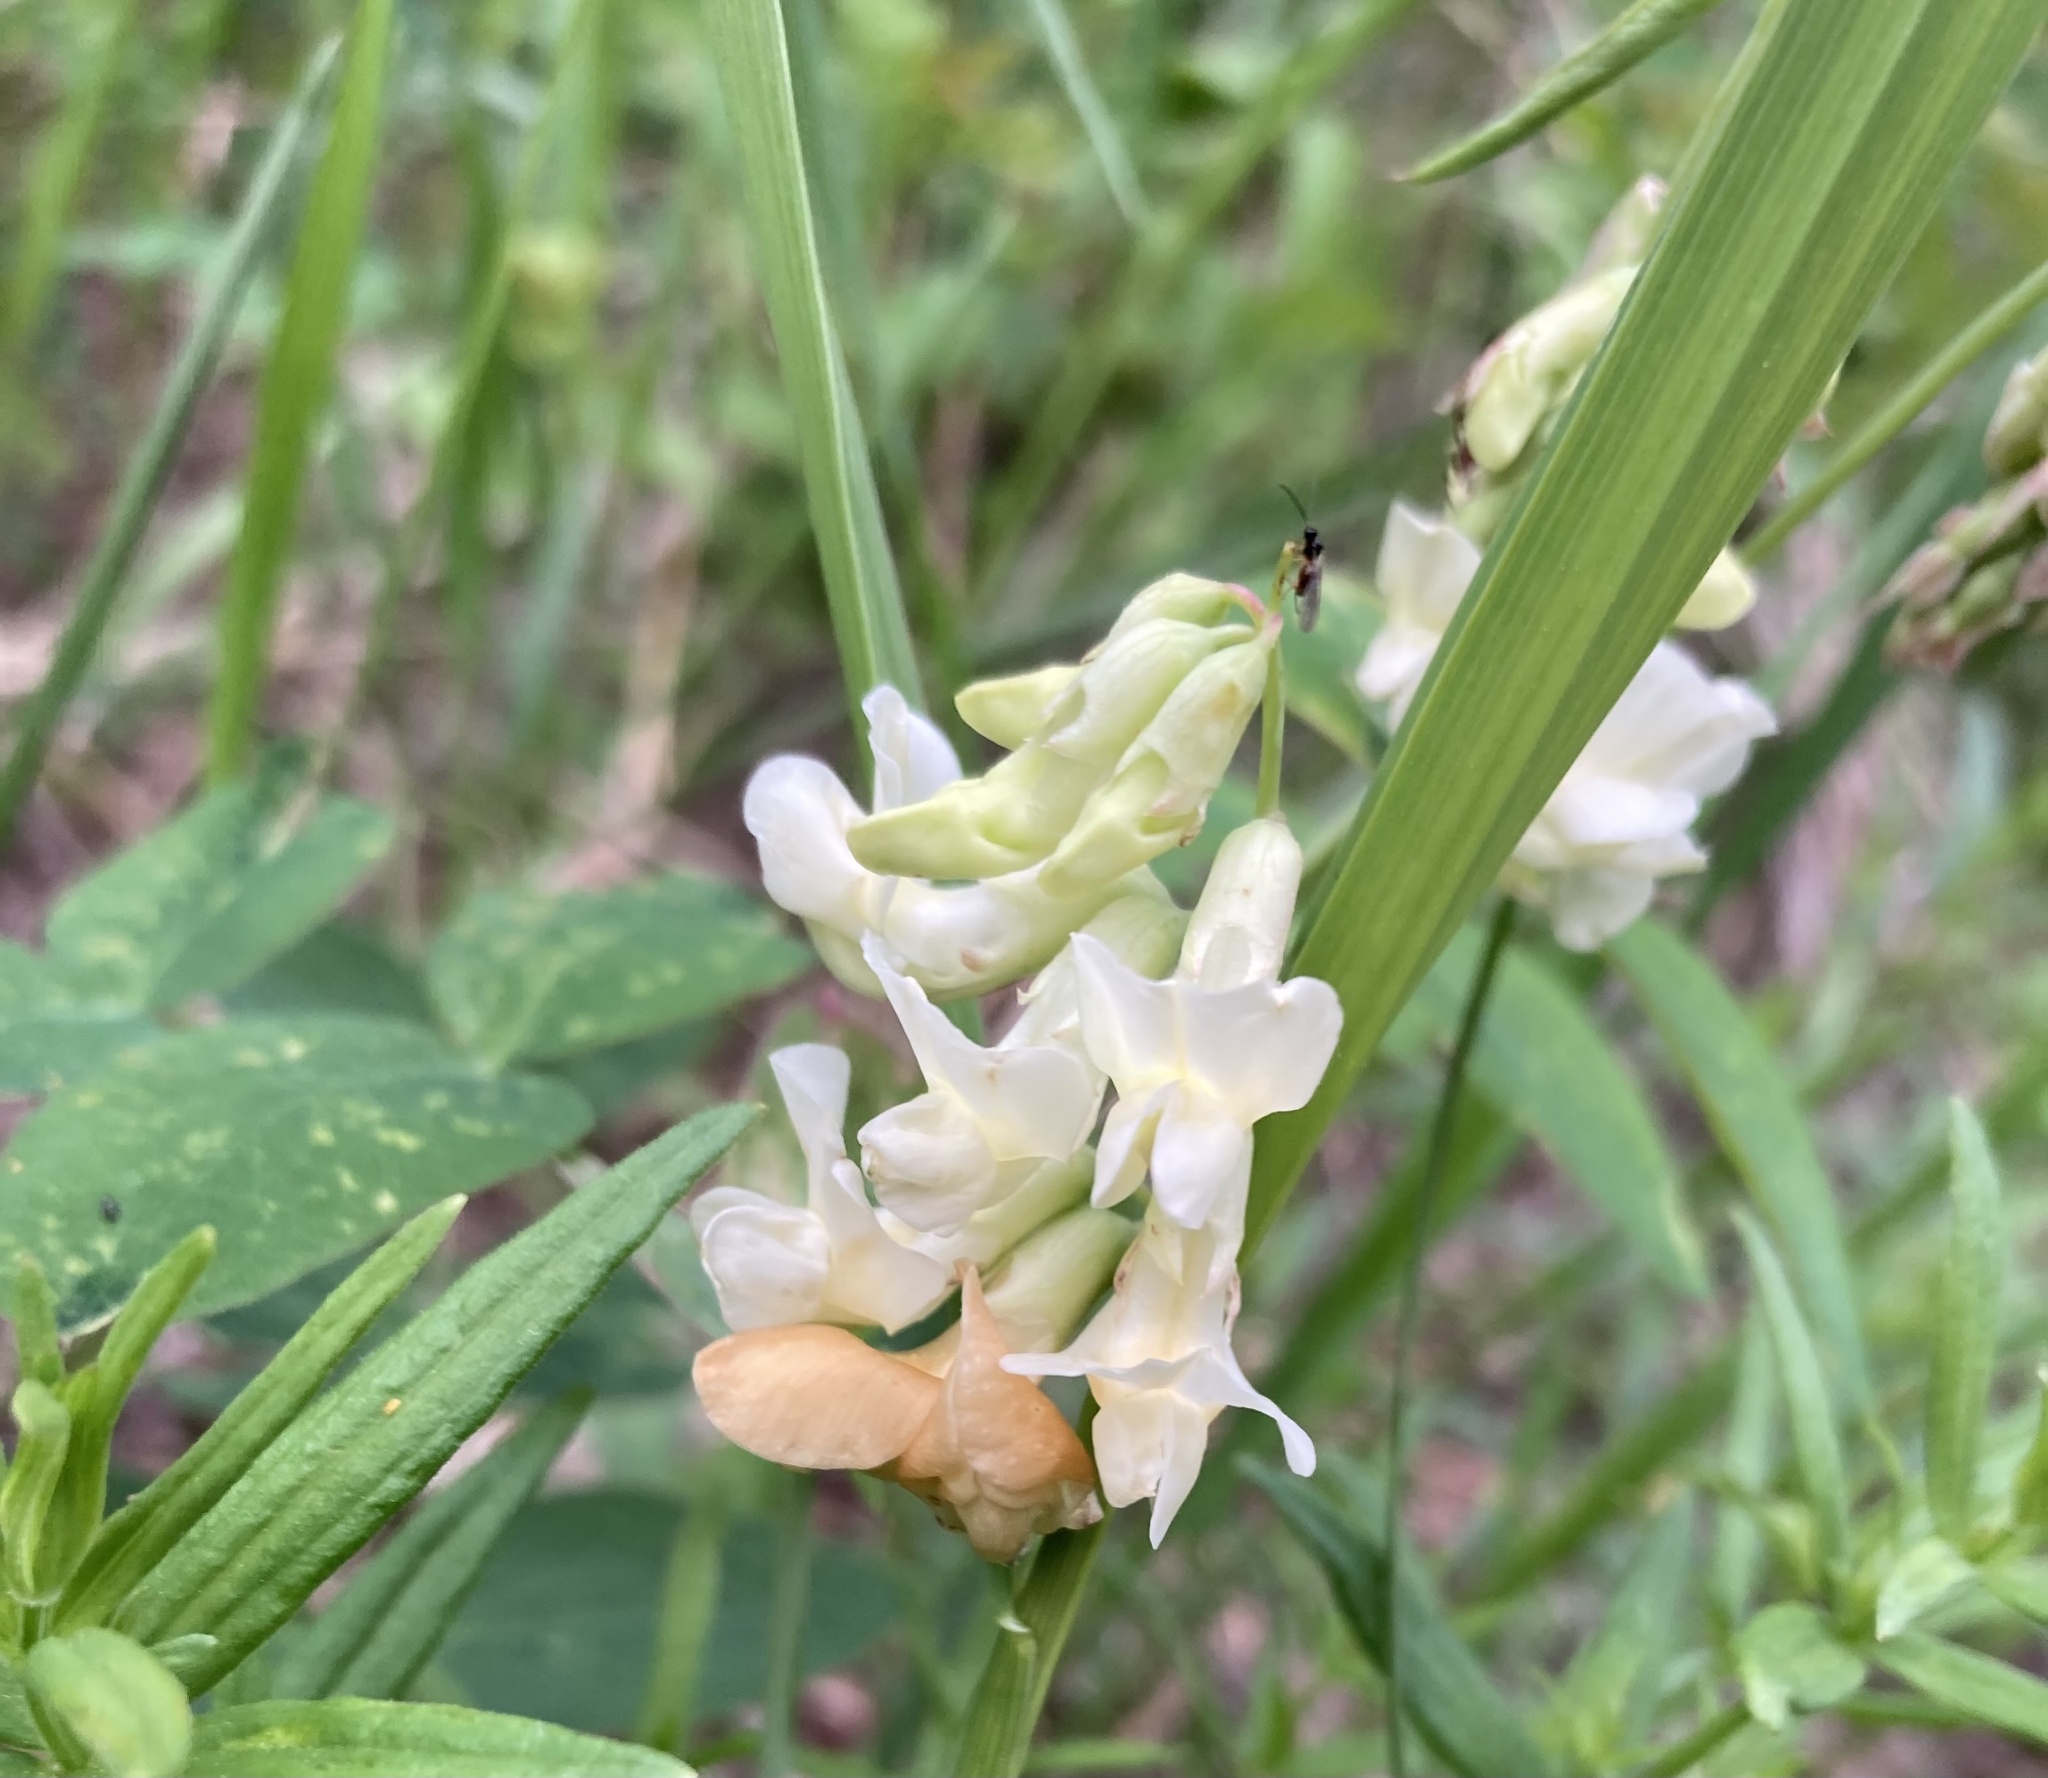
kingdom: Plantae
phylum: Tracheophyta
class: Magnoliopsida
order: Fabales
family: Fabaceae
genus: Lathyrus
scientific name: Lathyrus ochroleucus
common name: Pale vetchling
